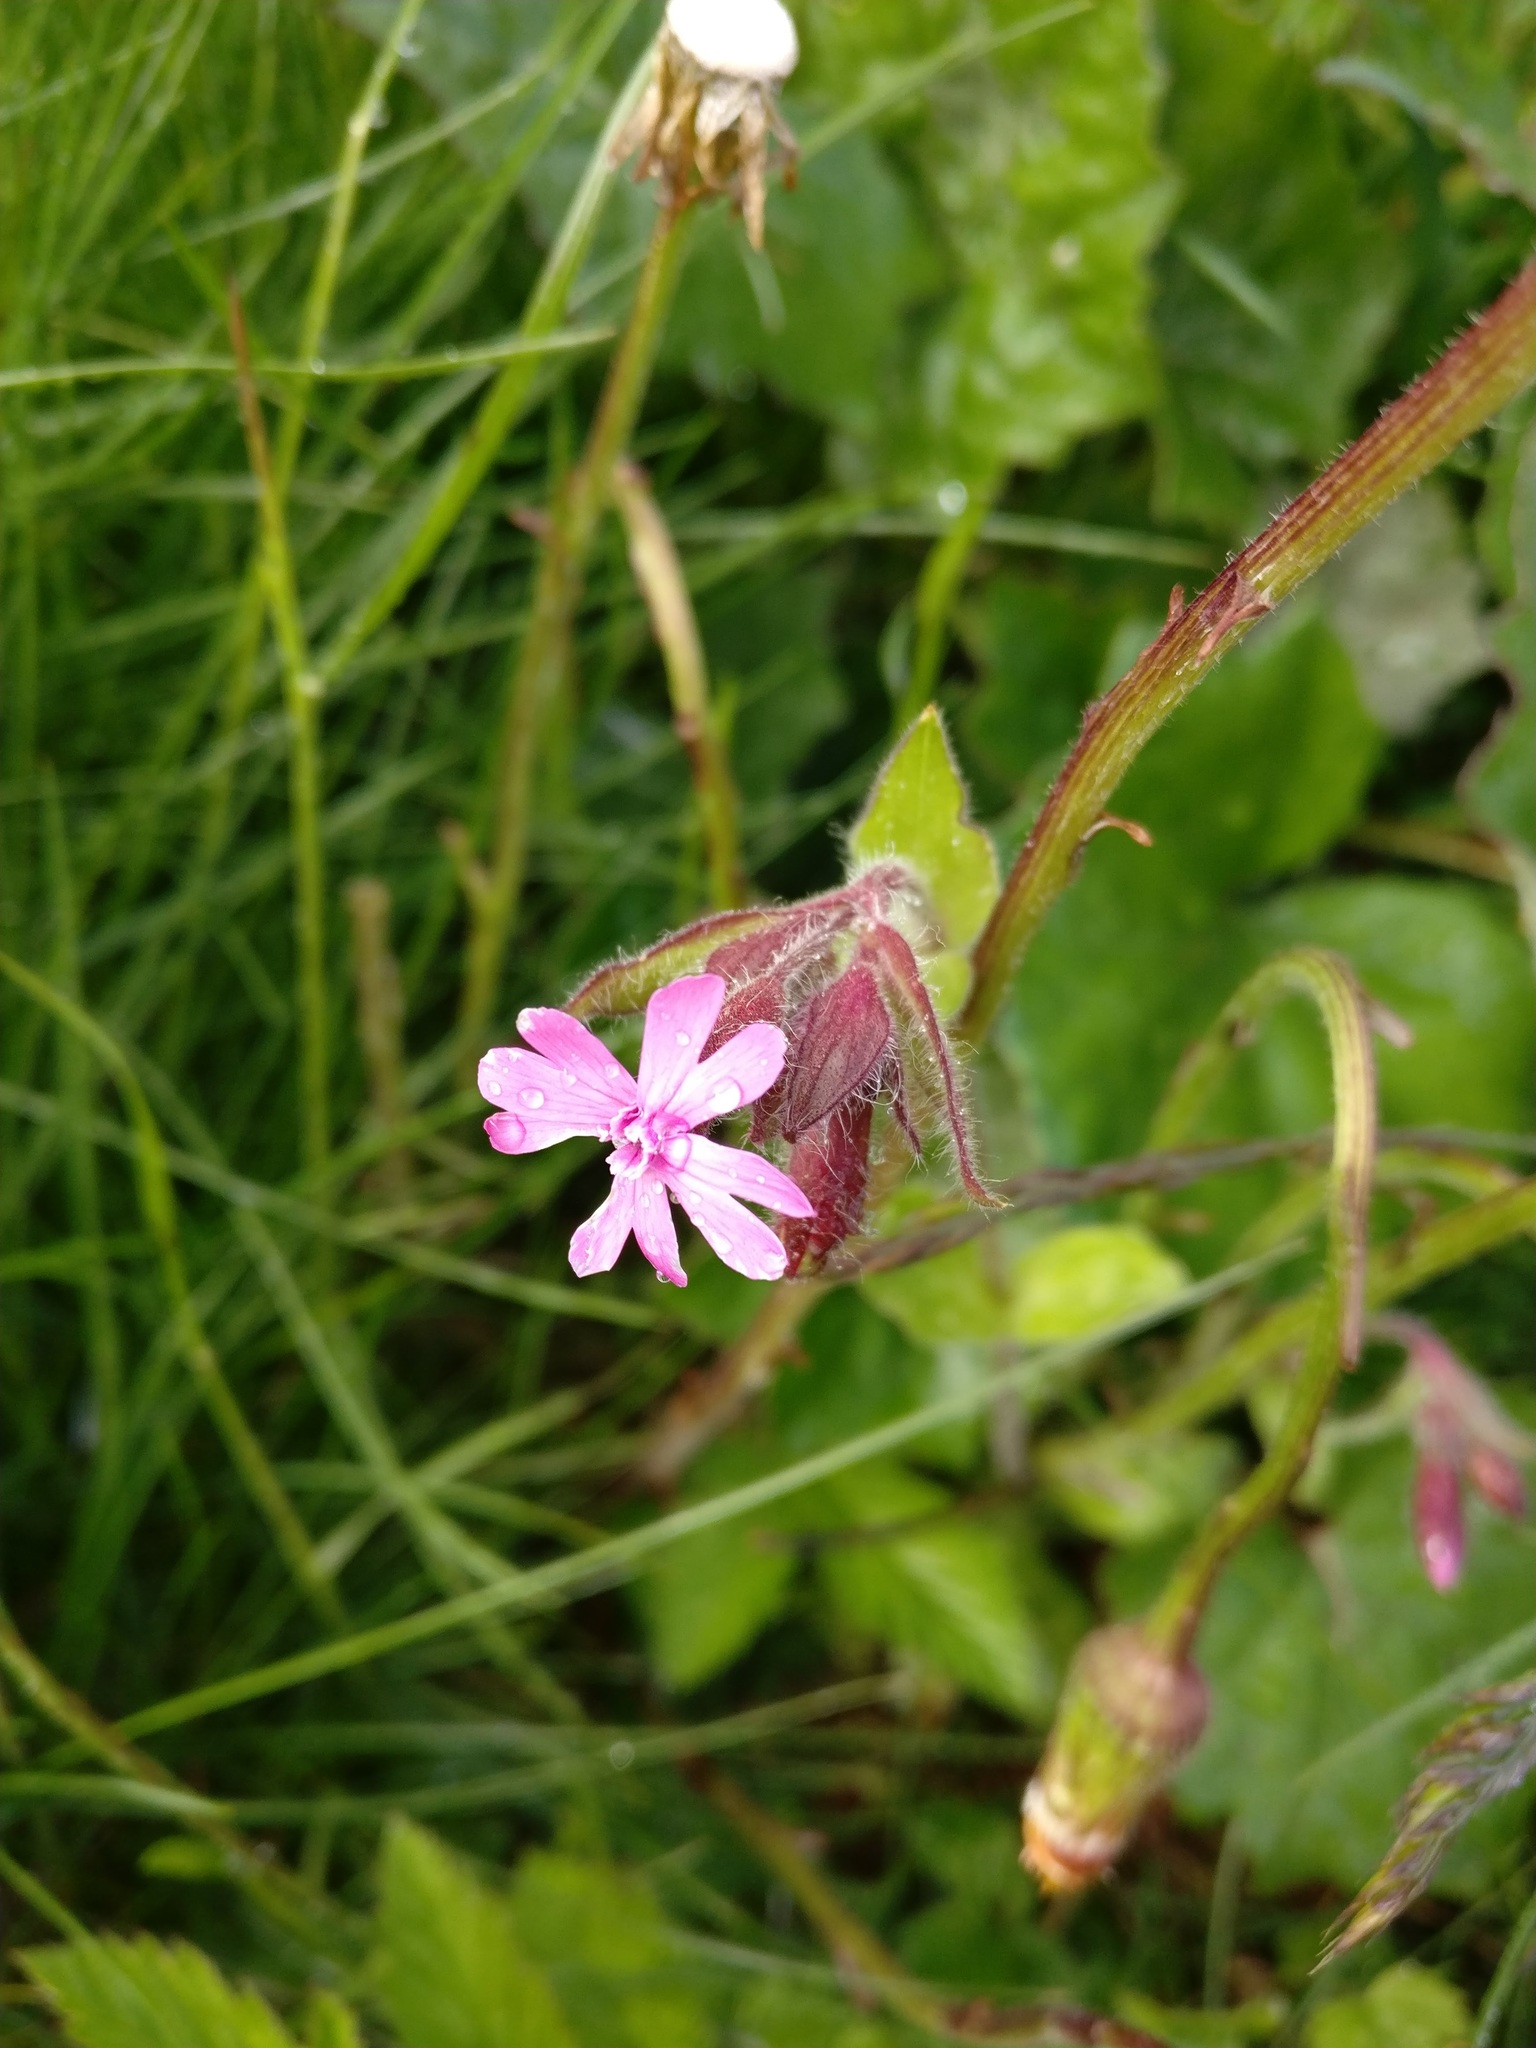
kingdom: Plantae
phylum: Tracheophyta
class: Magnoliopsida
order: Caryophyllales
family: Caryophyllaceae
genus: Silene
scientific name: Silene dioica
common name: Red campion
